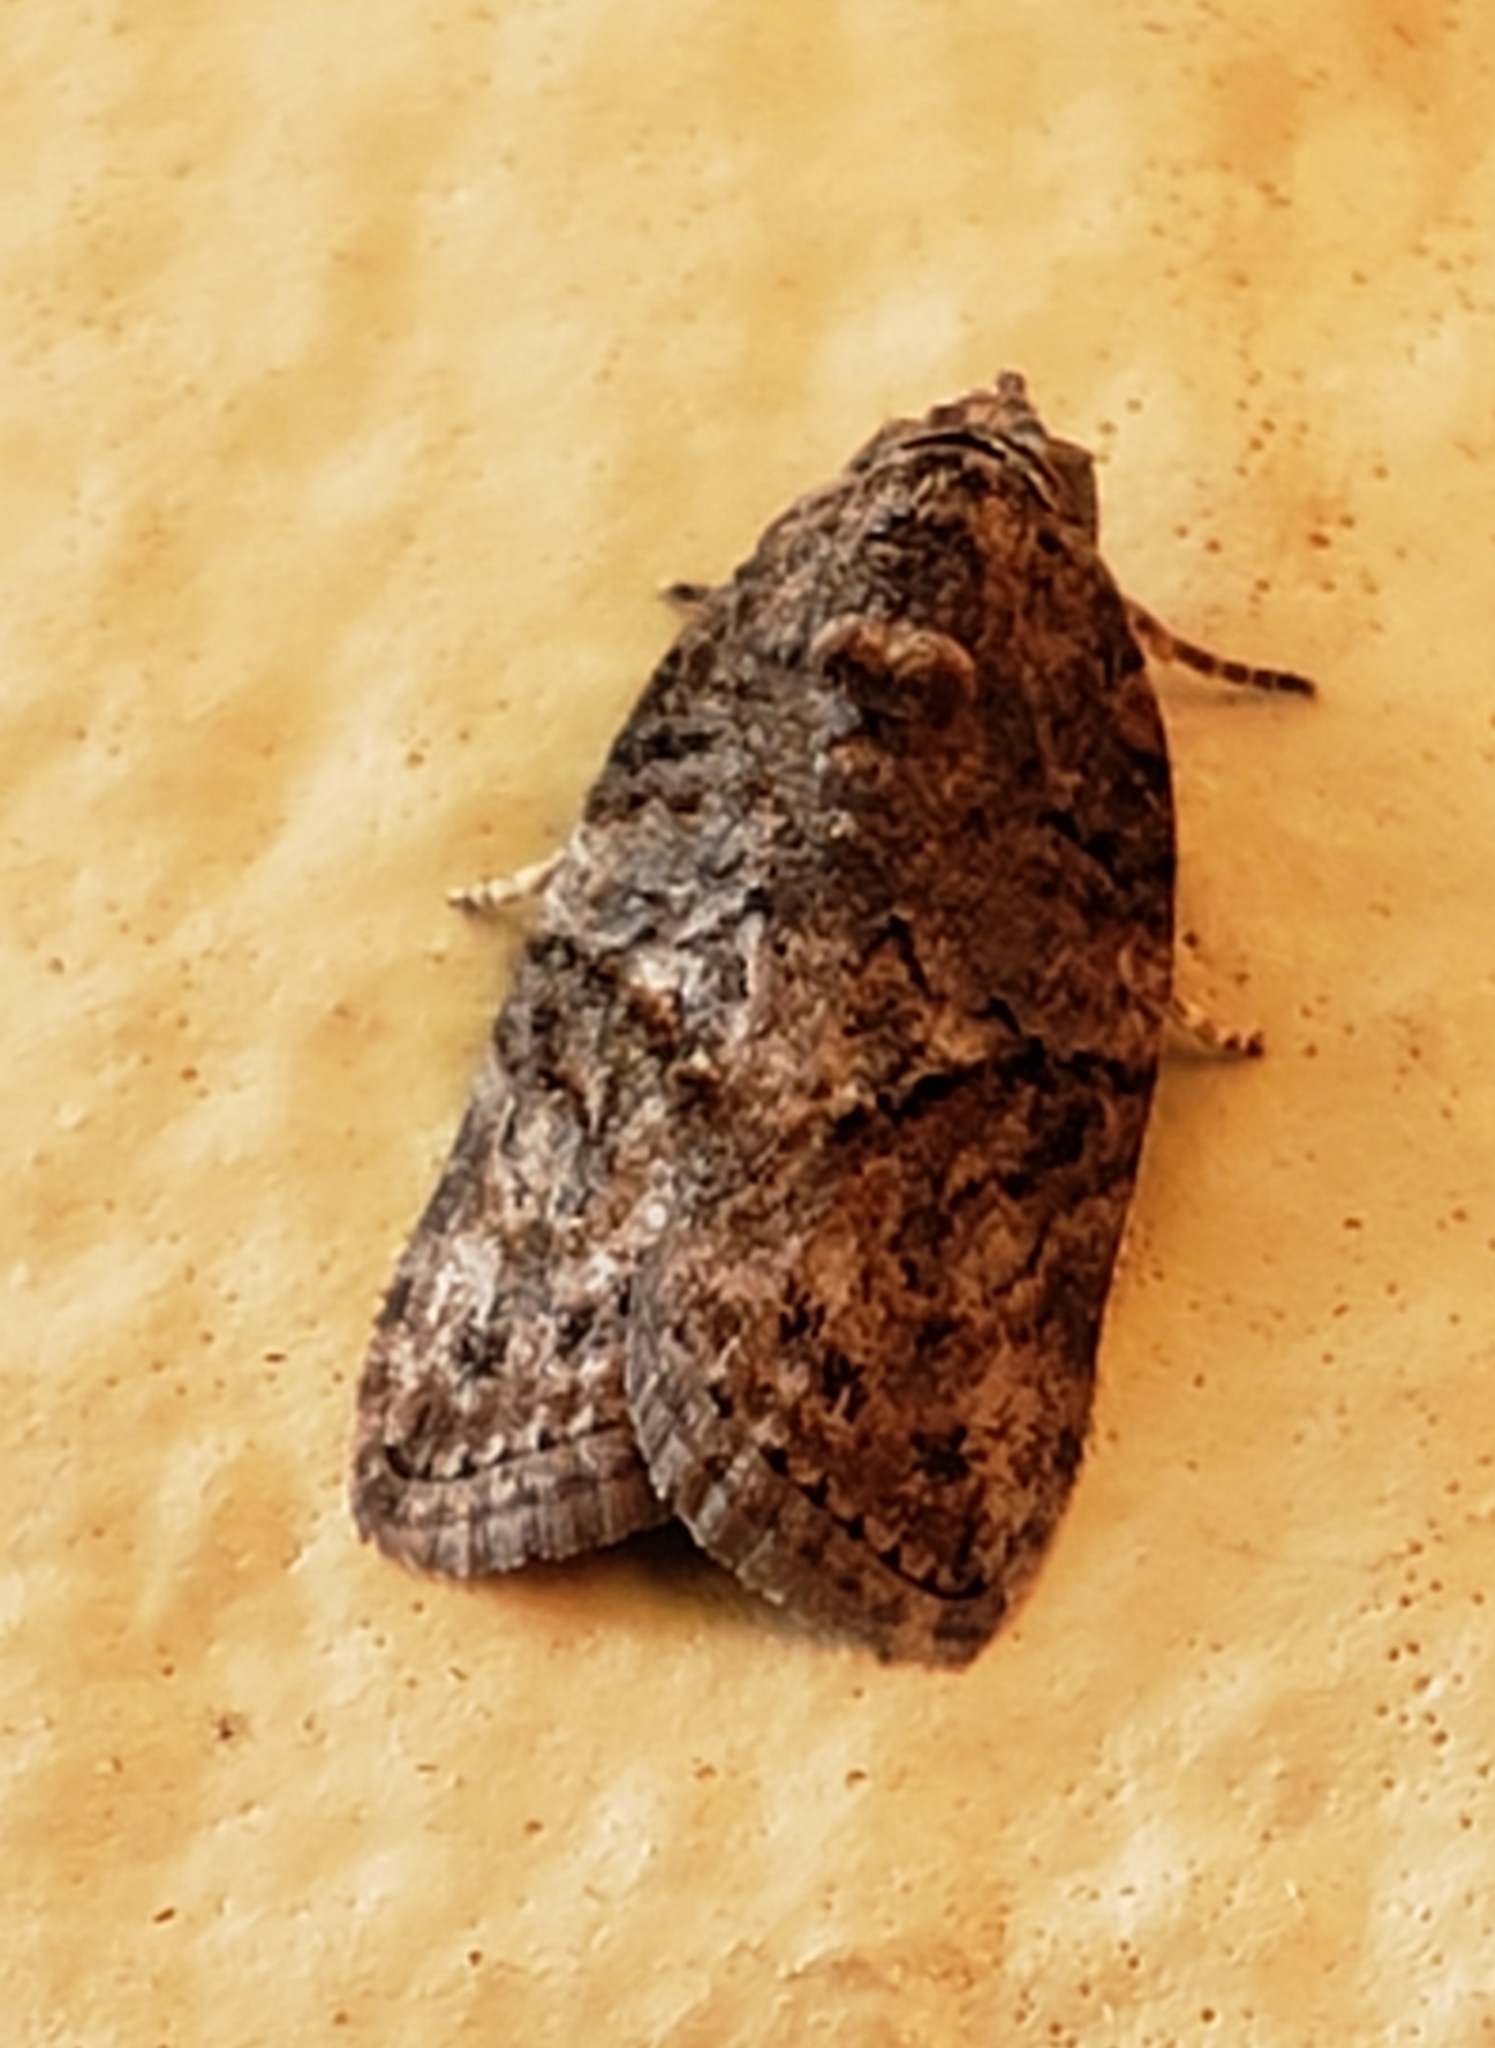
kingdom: Animalia
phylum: Arthropoda
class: Insecta
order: Lepidoptera
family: Nolidae
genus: Garella
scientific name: Garella nilotica
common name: Black-olive caterpillar moth
